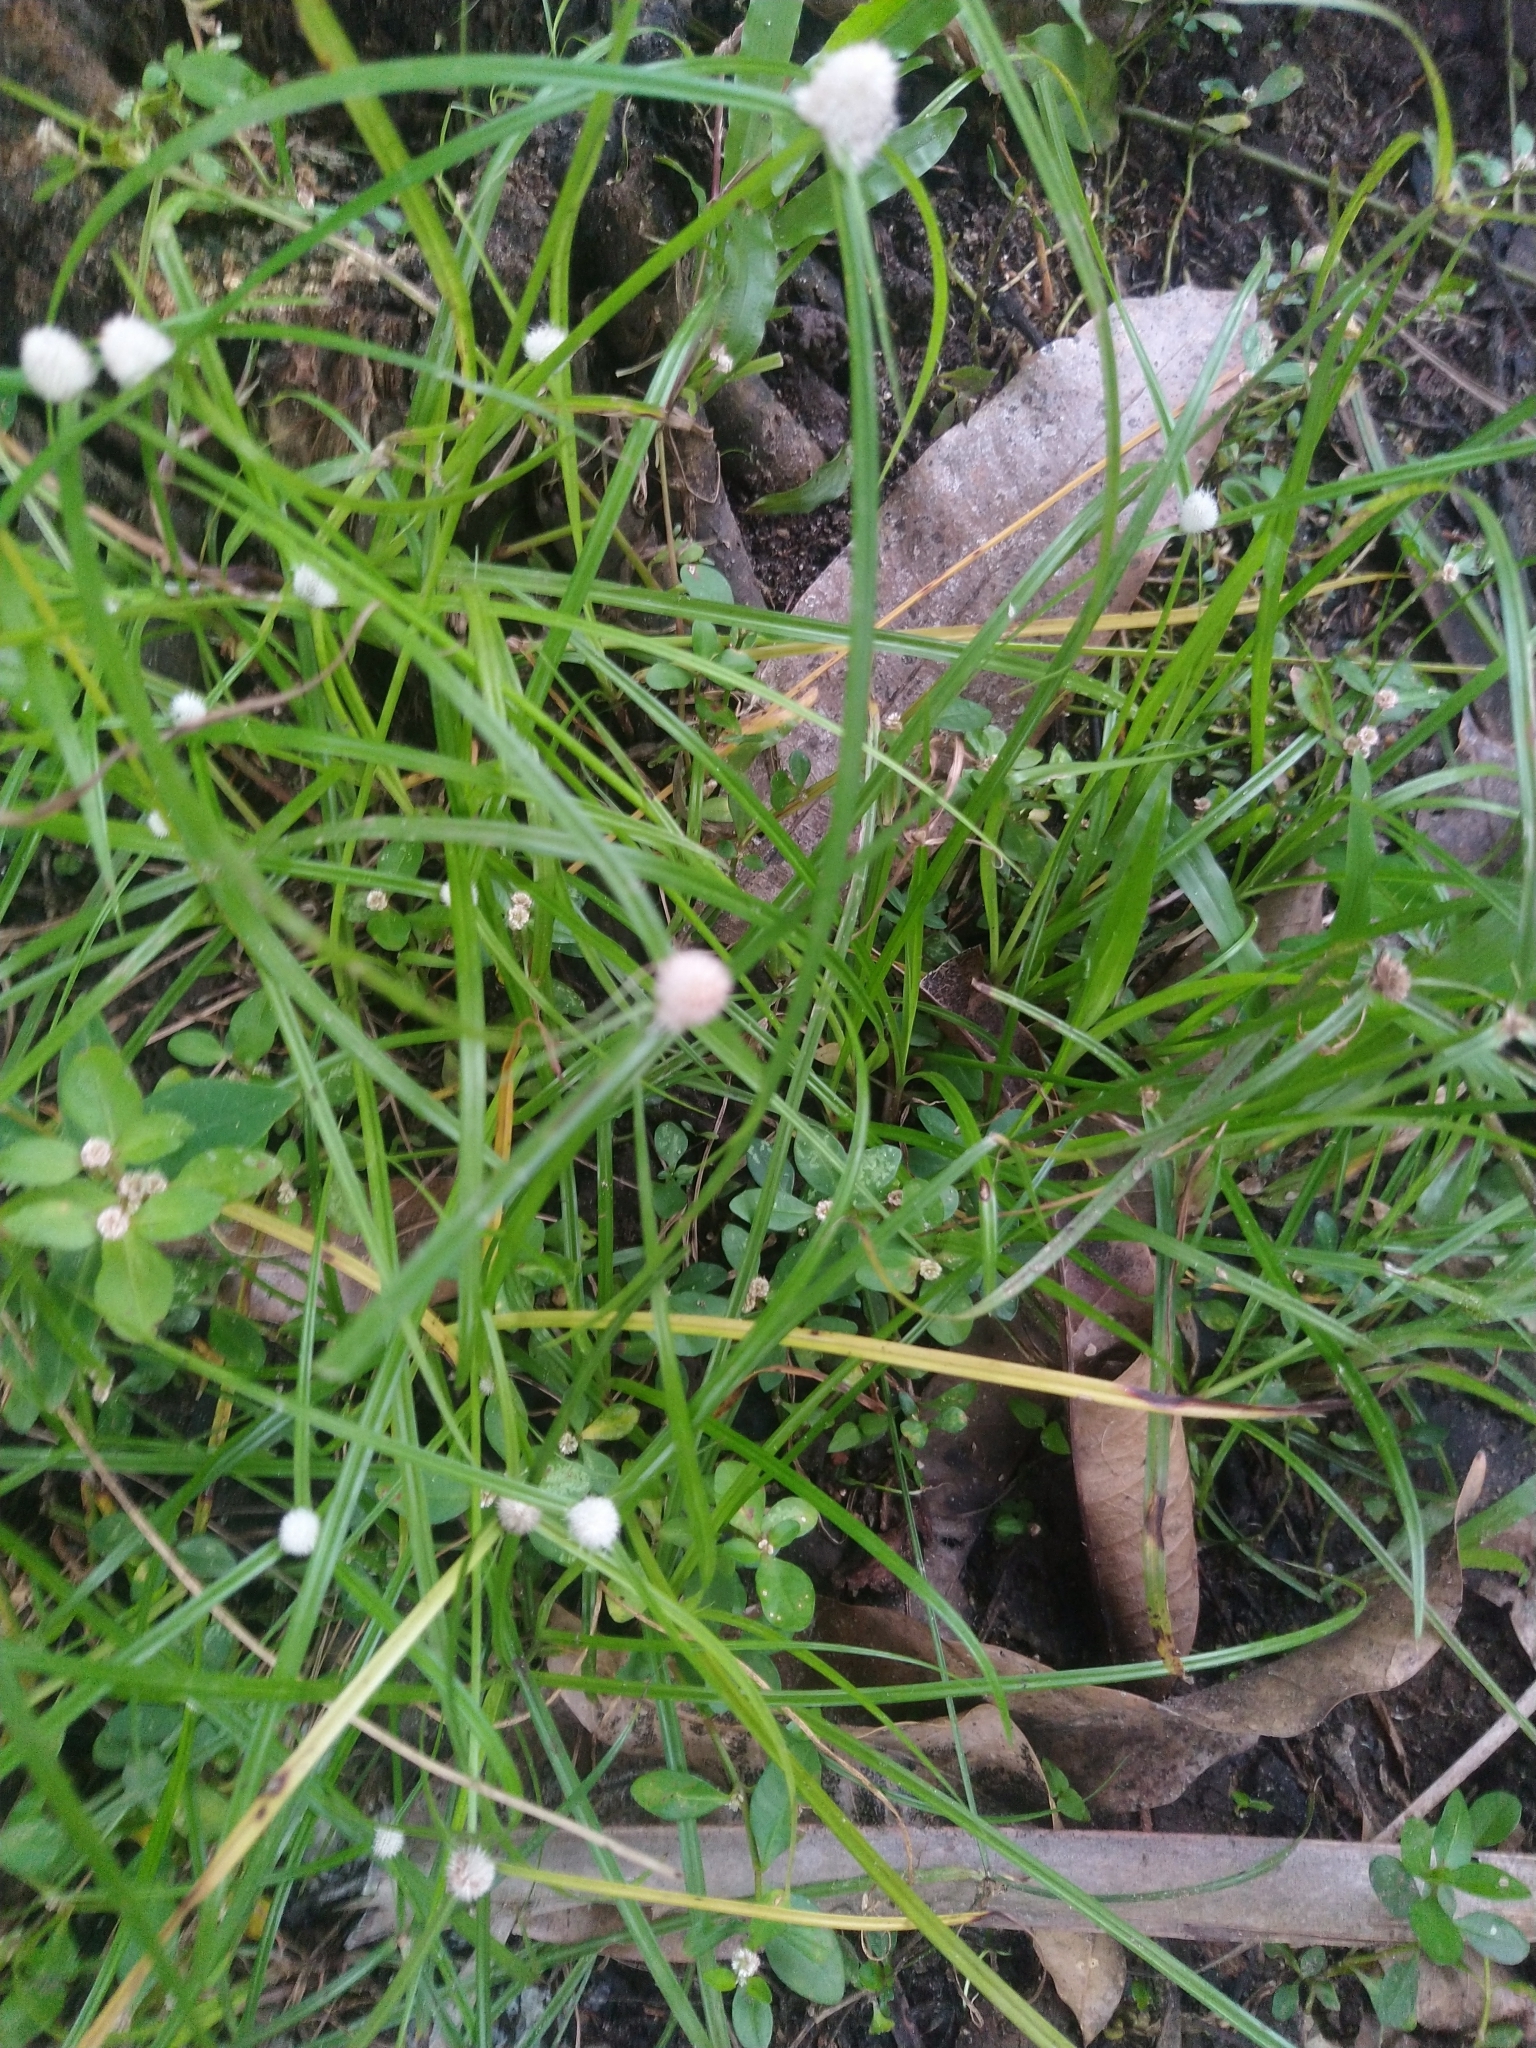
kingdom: Plantae
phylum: Tracheophyta
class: Liliopsida
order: Poales
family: Cyperaceae
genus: Cyperus
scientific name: Cyperus mindorensis
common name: Flatsedge
